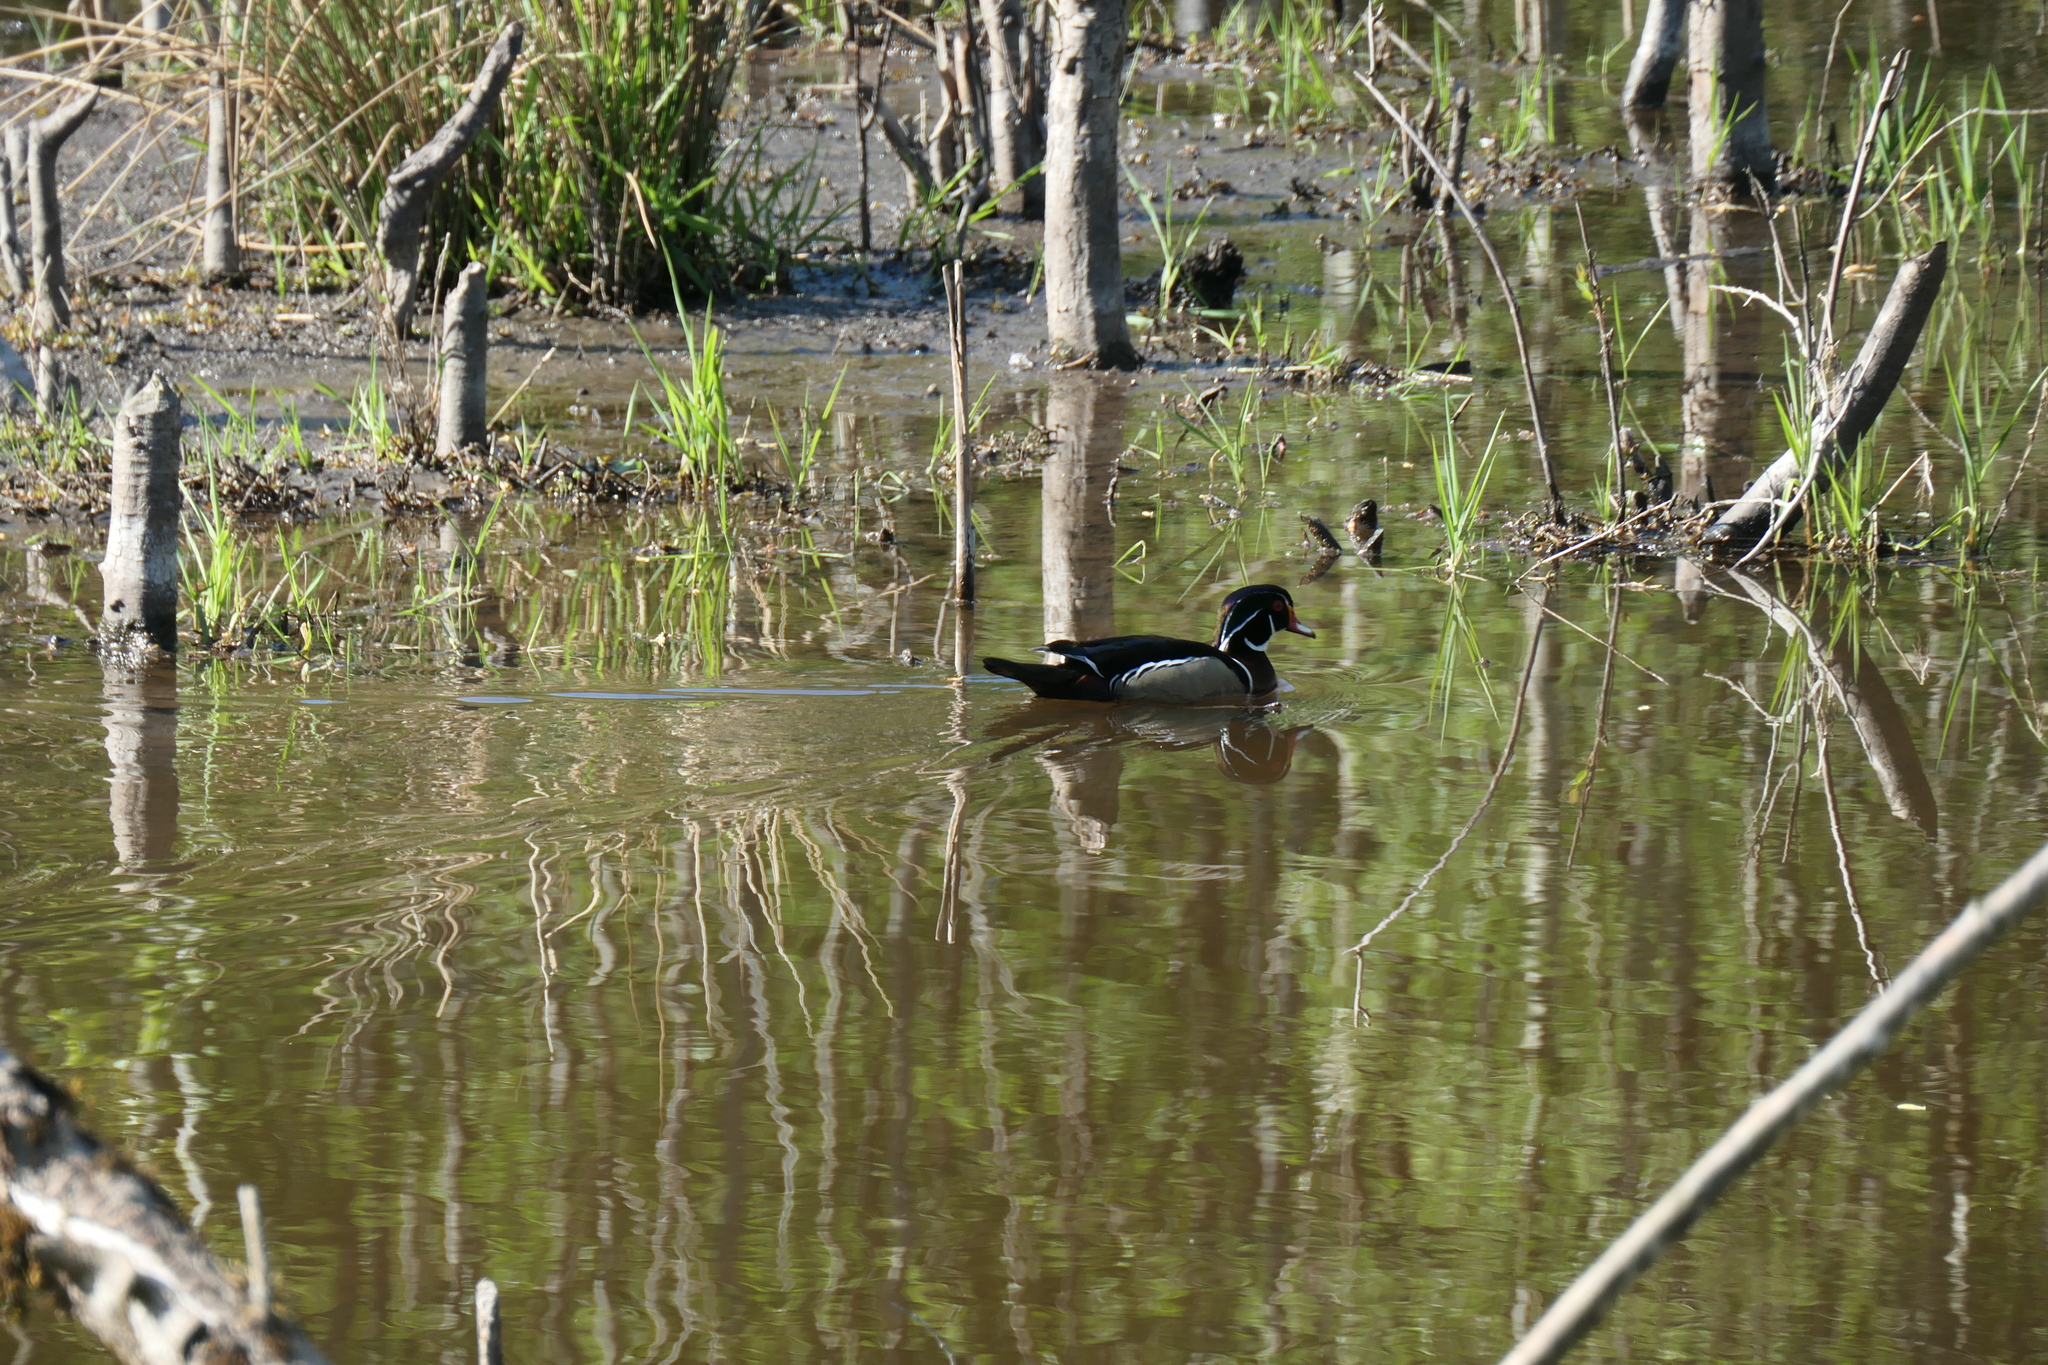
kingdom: Animalia
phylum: Chordata
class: Aves
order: Anseriformes
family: Anatidae
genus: Aix
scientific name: Aix sponsa
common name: Wood duck
